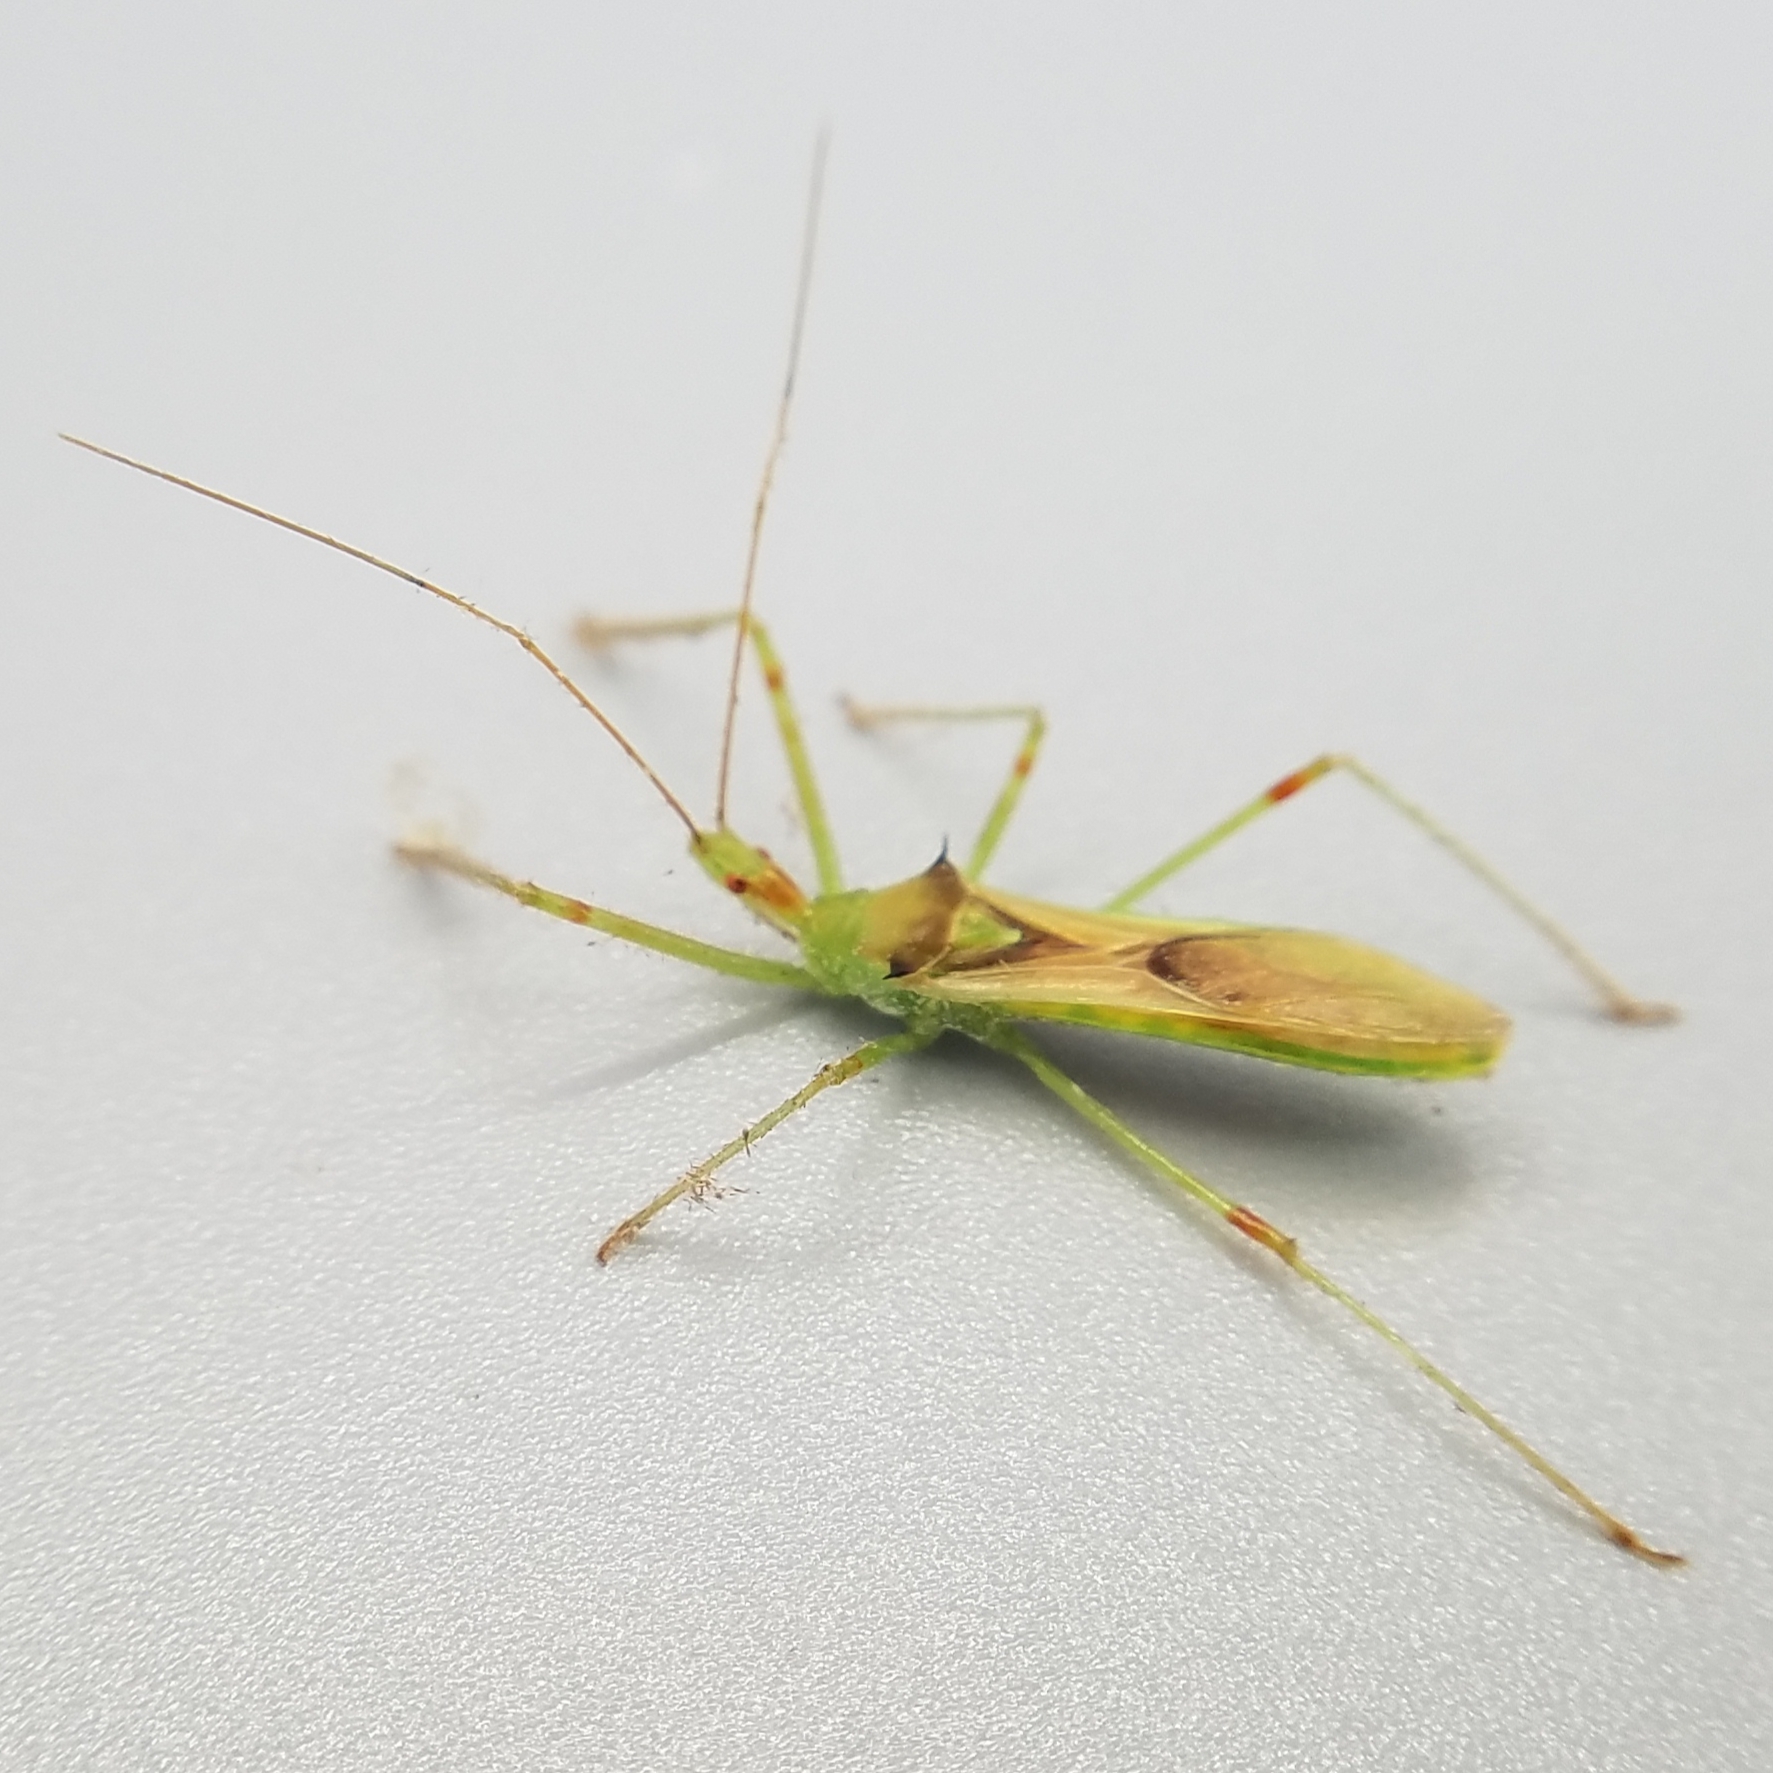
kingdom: Animalia
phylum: Arthropoda
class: Insecta
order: Hemiptera
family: Reduviidae
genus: Zelus
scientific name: Zelus luridus
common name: Pale green assassin bug
